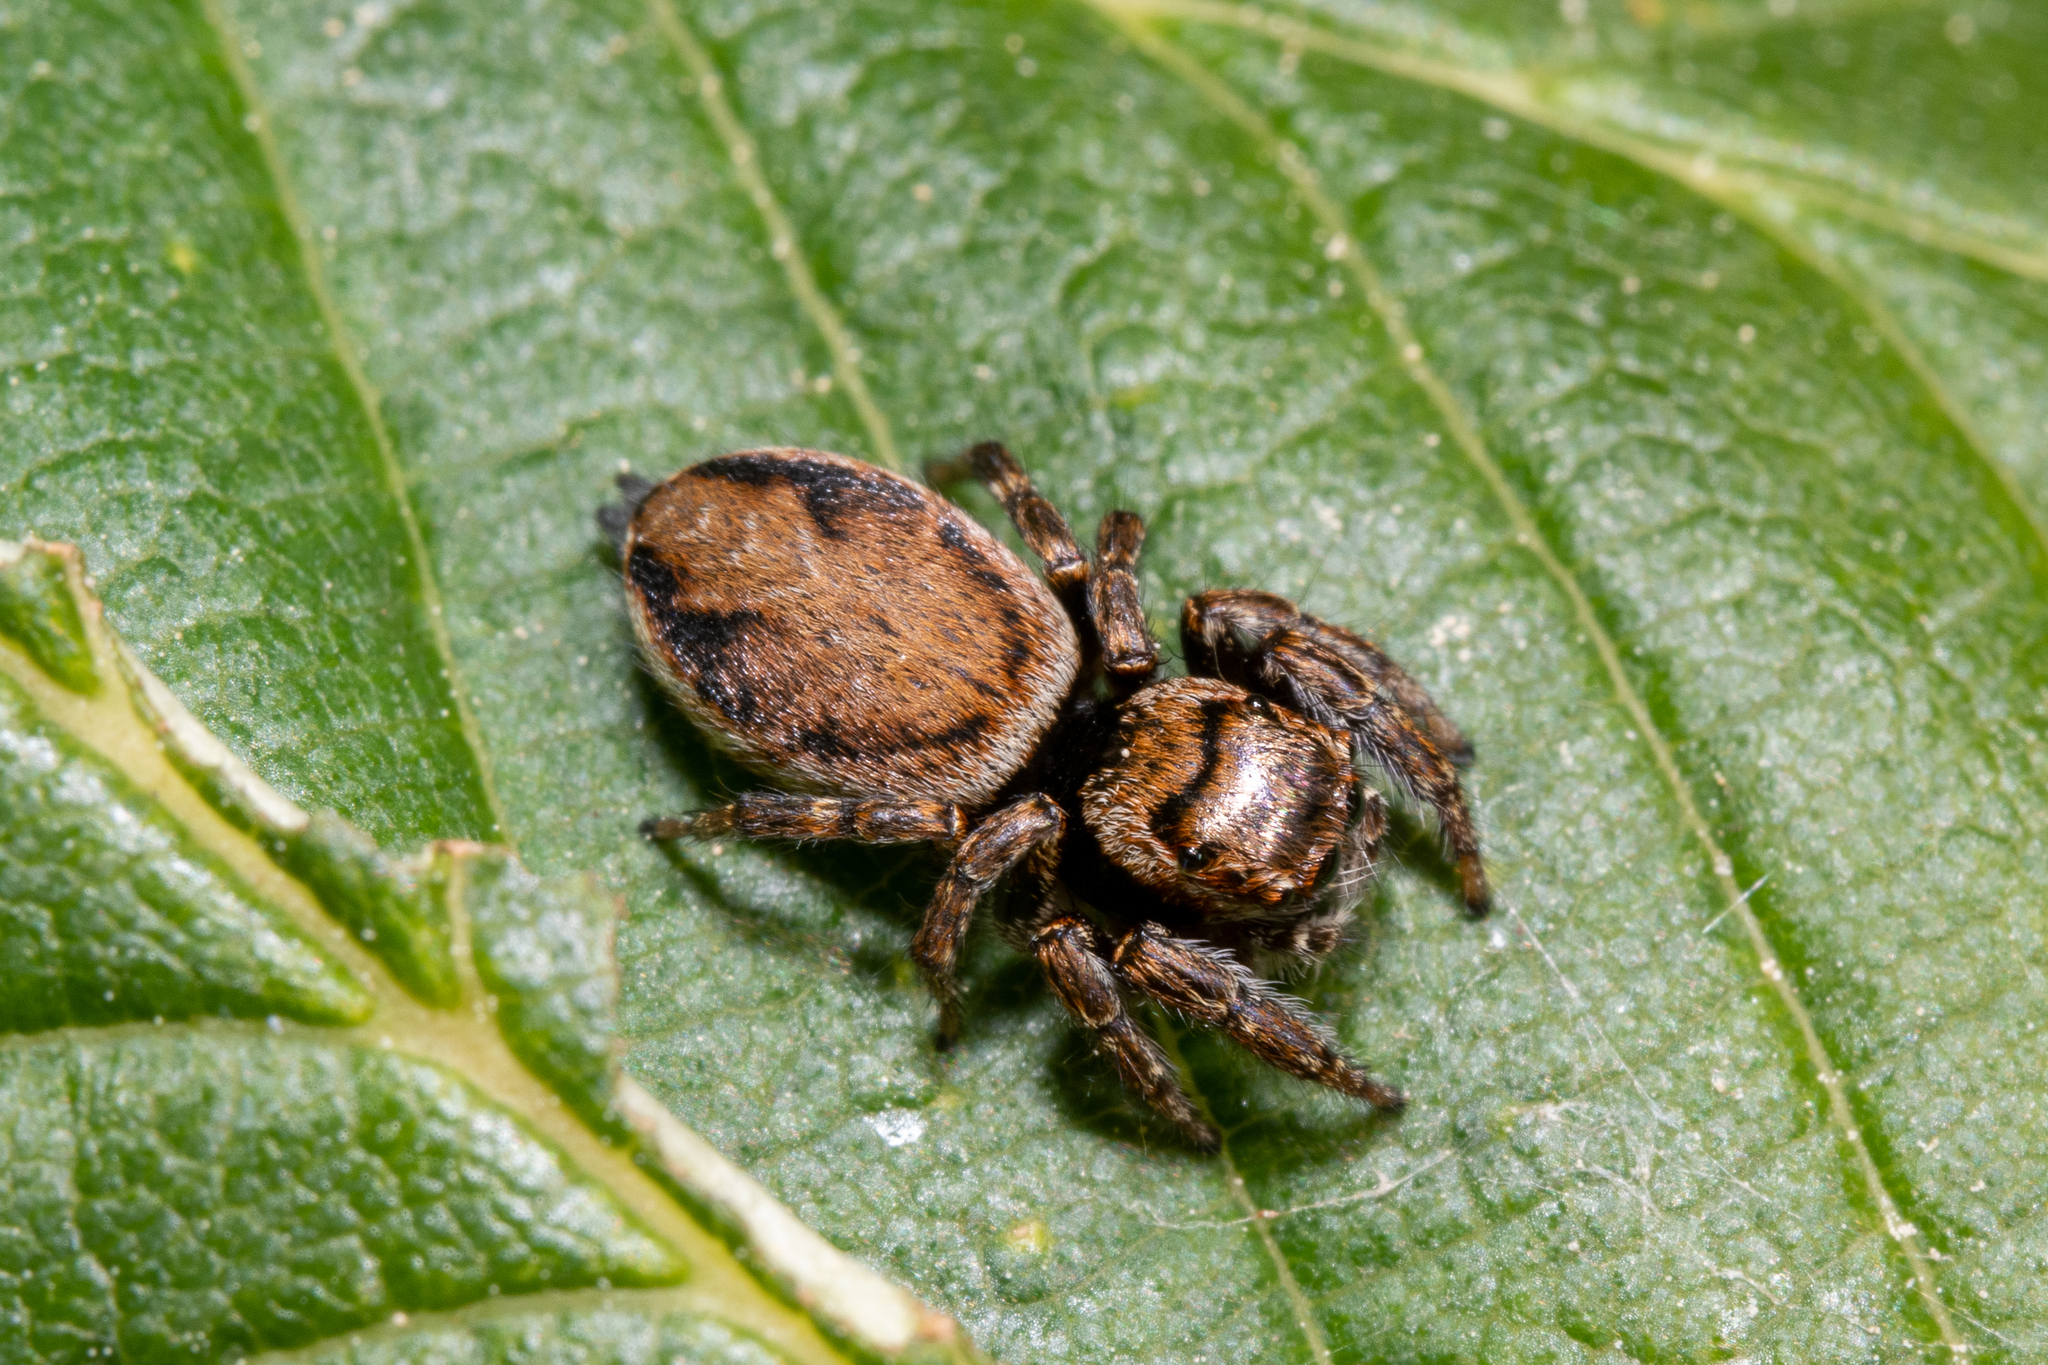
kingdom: Animalia
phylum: Arthropoda
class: Arachnida
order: Araneae
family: Salticidae
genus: Evarcha
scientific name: Evarcha falcata
